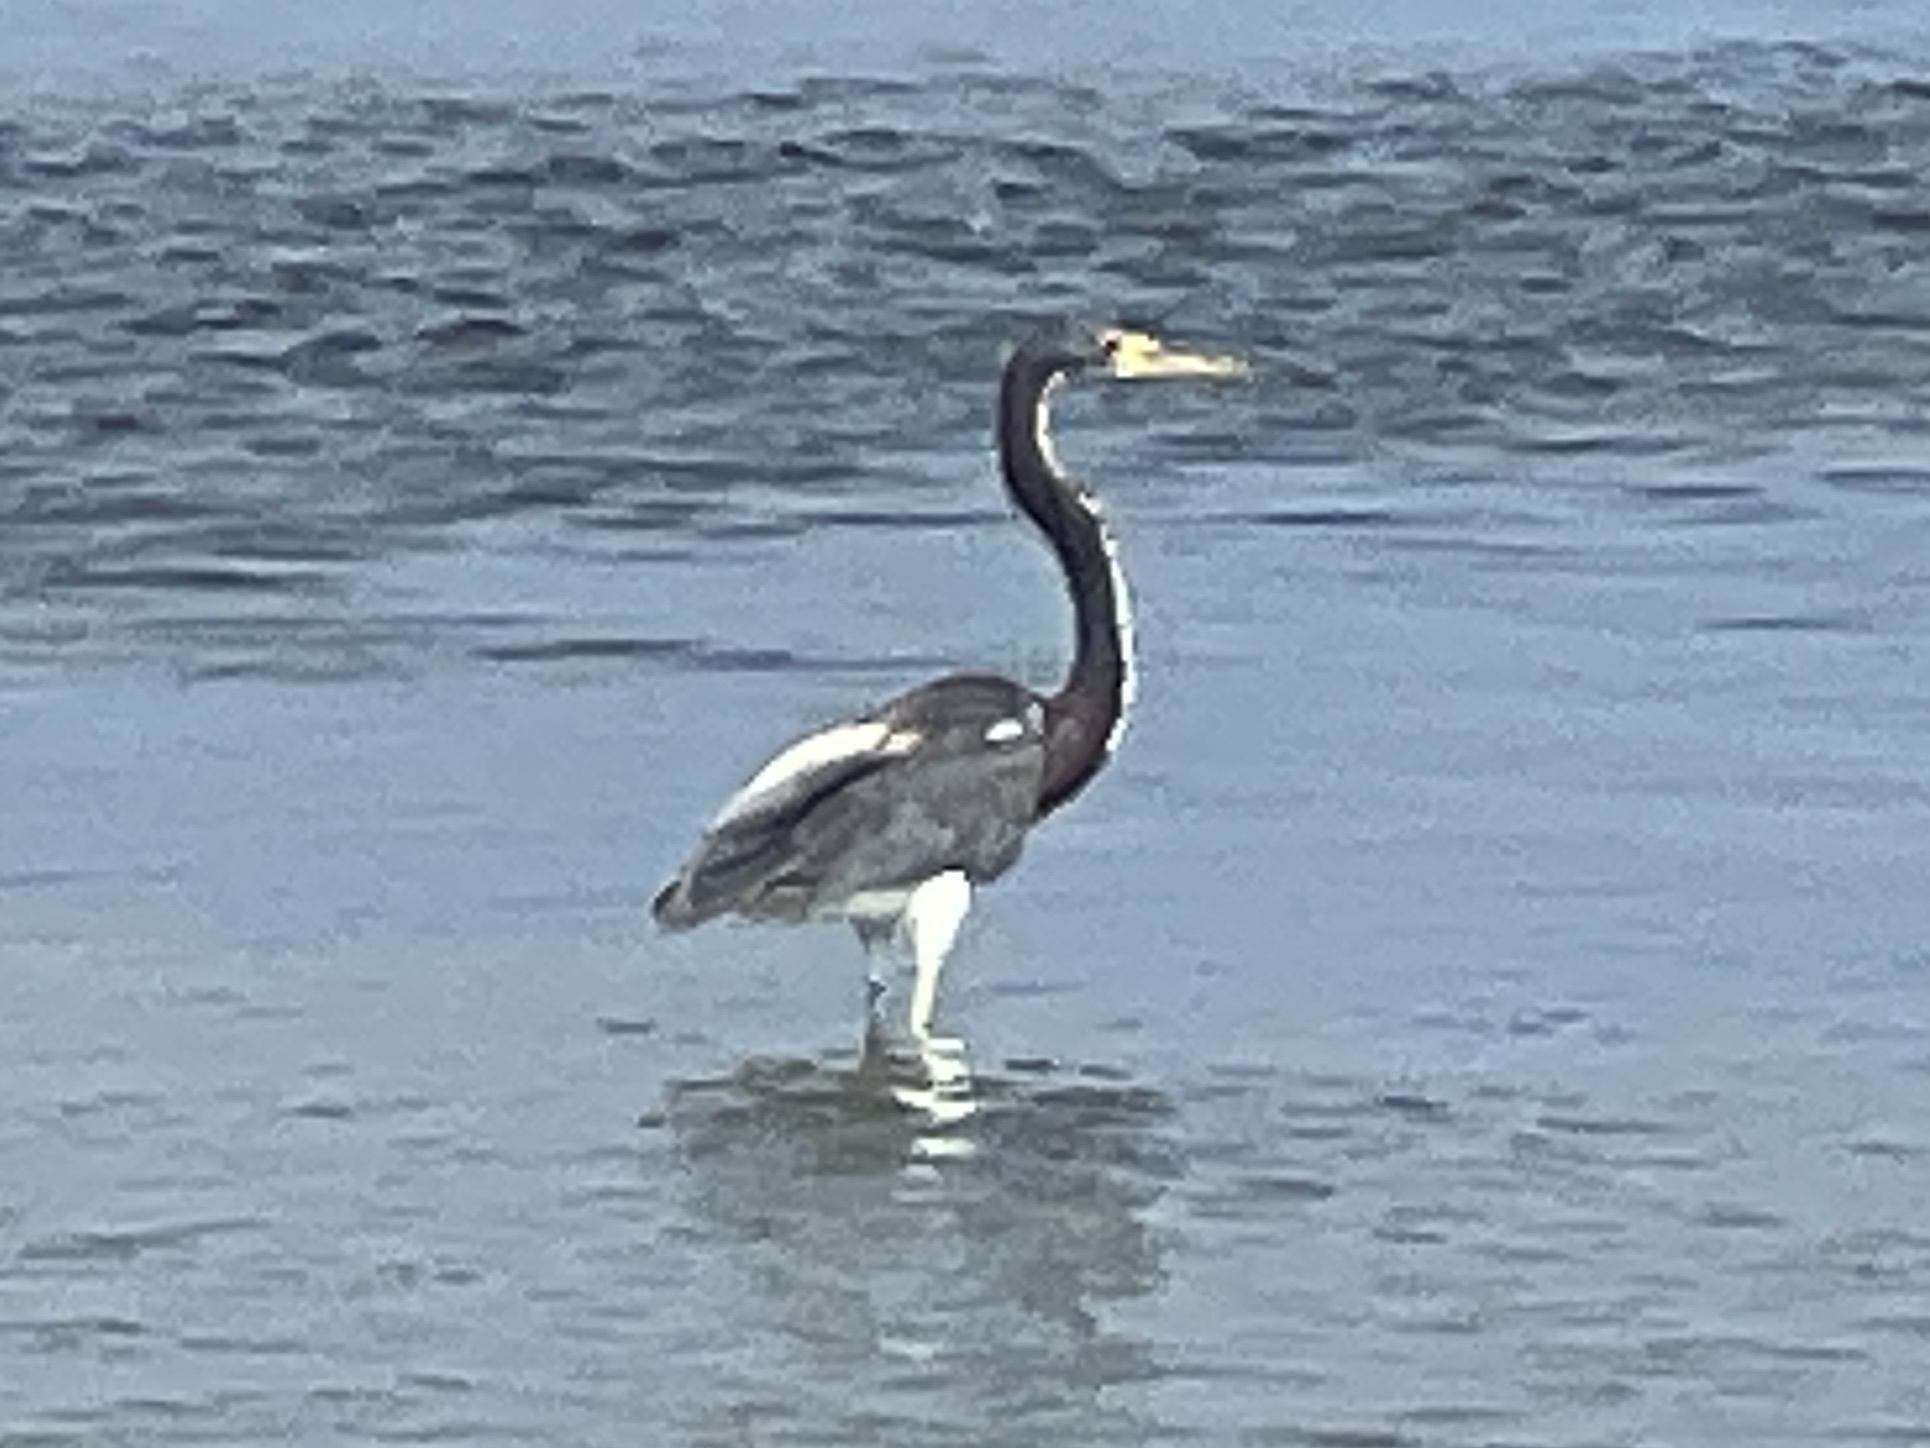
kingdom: Animalia
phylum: Chordata
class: Aves
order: Pelecaniformes
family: Ardeidae
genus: Egretta
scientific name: Egretta tricolor
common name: Tricolored heron
